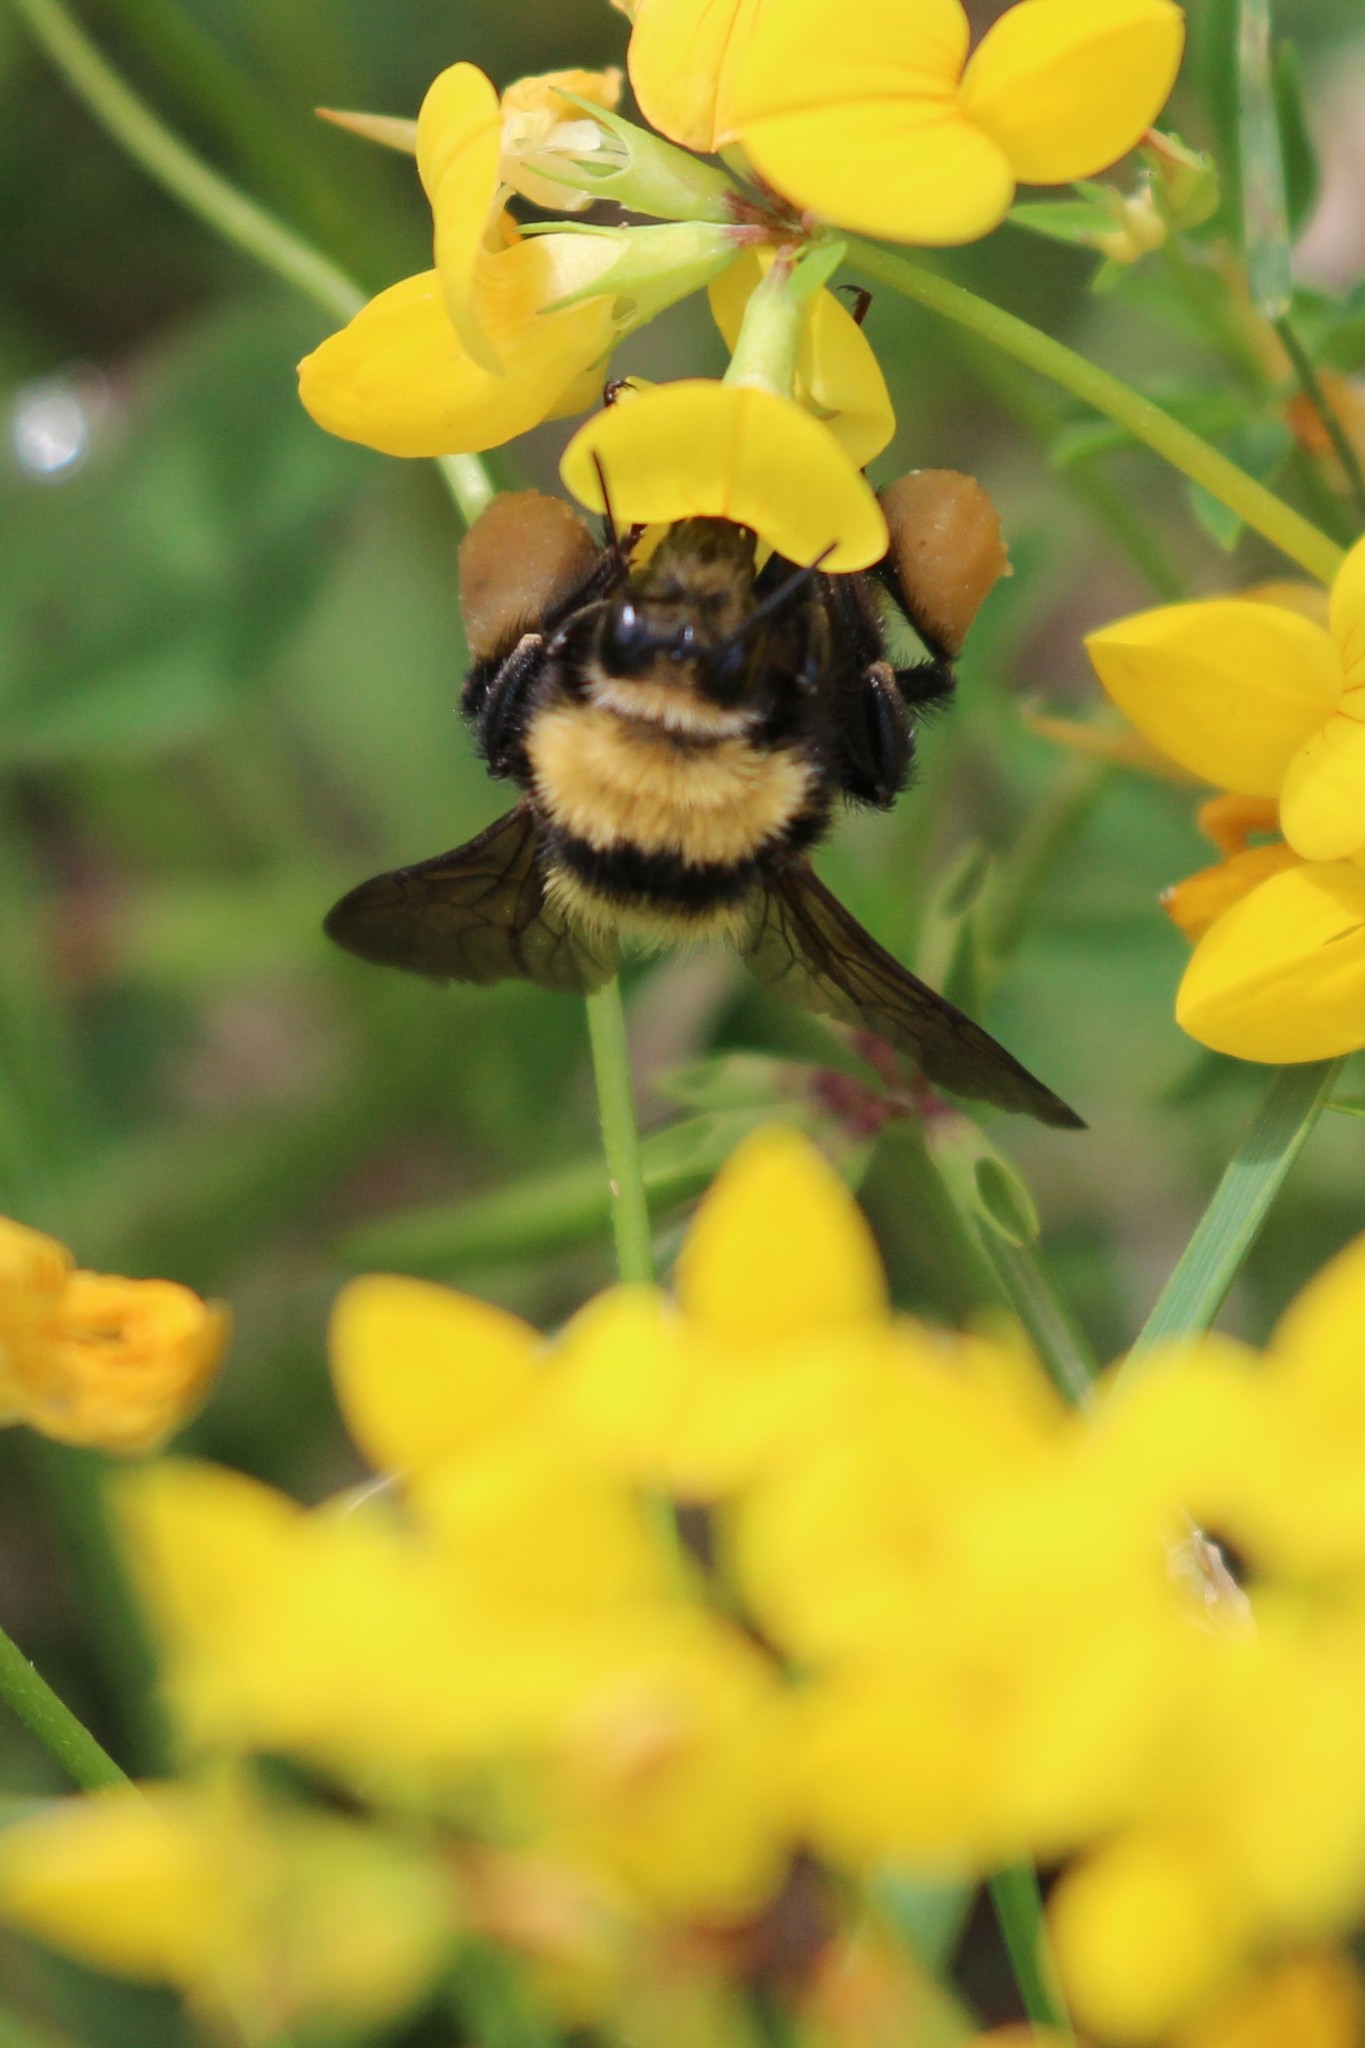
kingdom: Animalia
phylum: Arthropoda
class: Insecta
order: Hymenoptera
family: Apidae
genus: Bombus
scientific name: Bombus borealis
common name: Northern amber bumble bee
